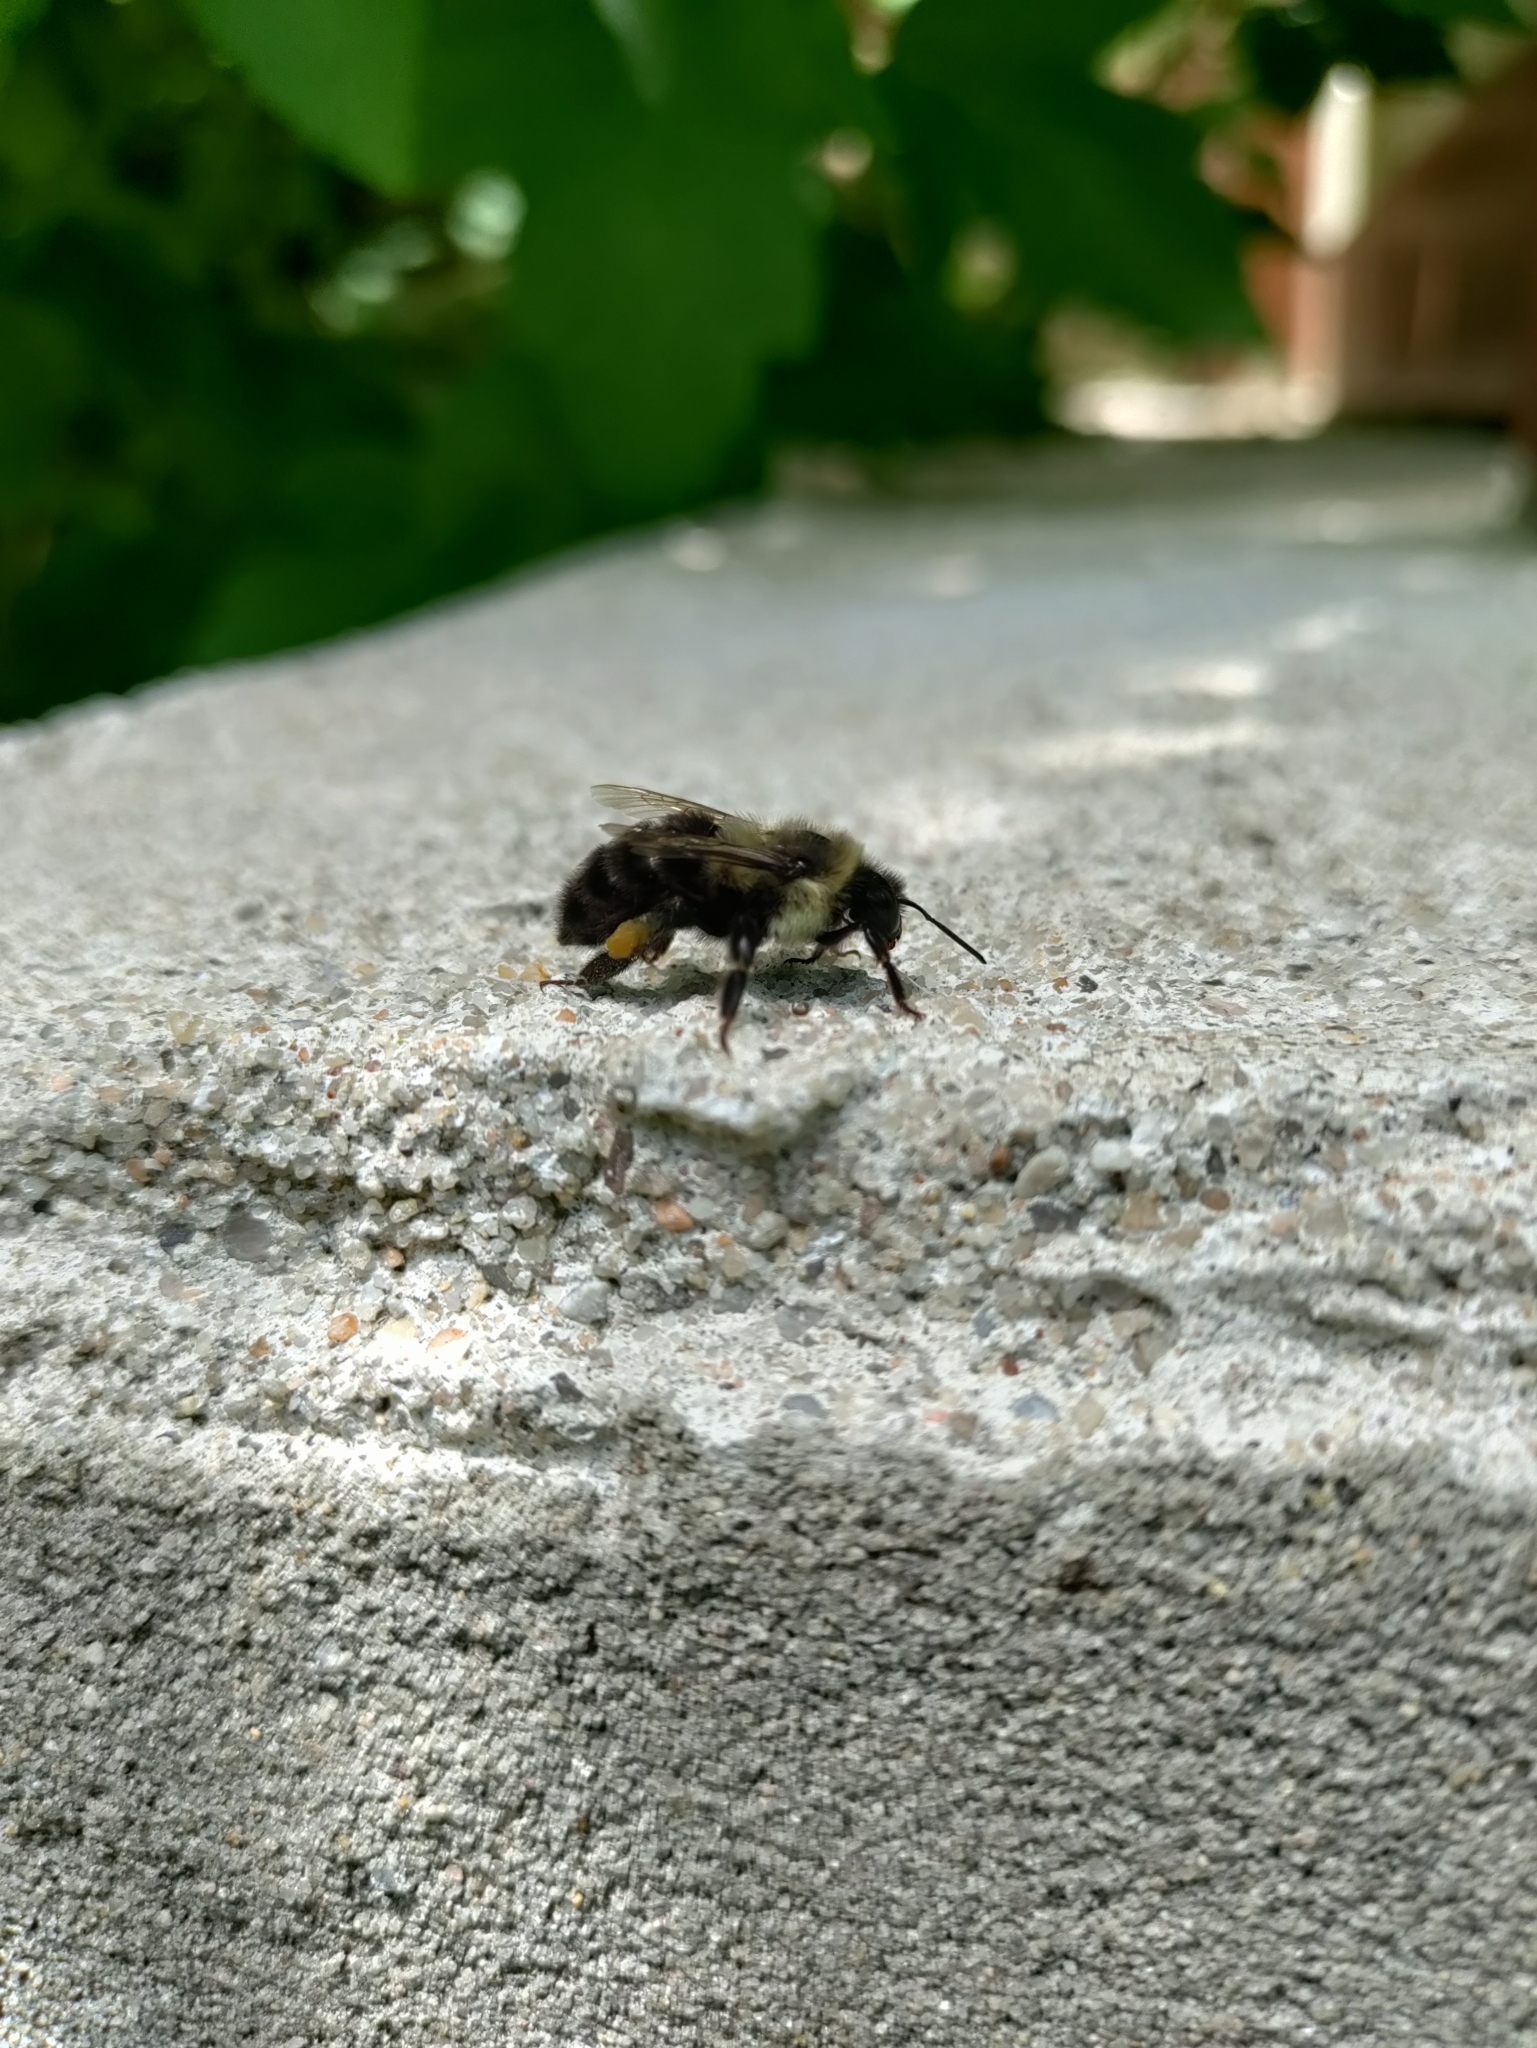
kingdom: Animalia
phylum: Arthropoda
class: Insecta
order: Hymenoptera
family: Apidae
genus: Bombus
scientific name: Bombus impatiens
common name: Common eastern bumble bee
